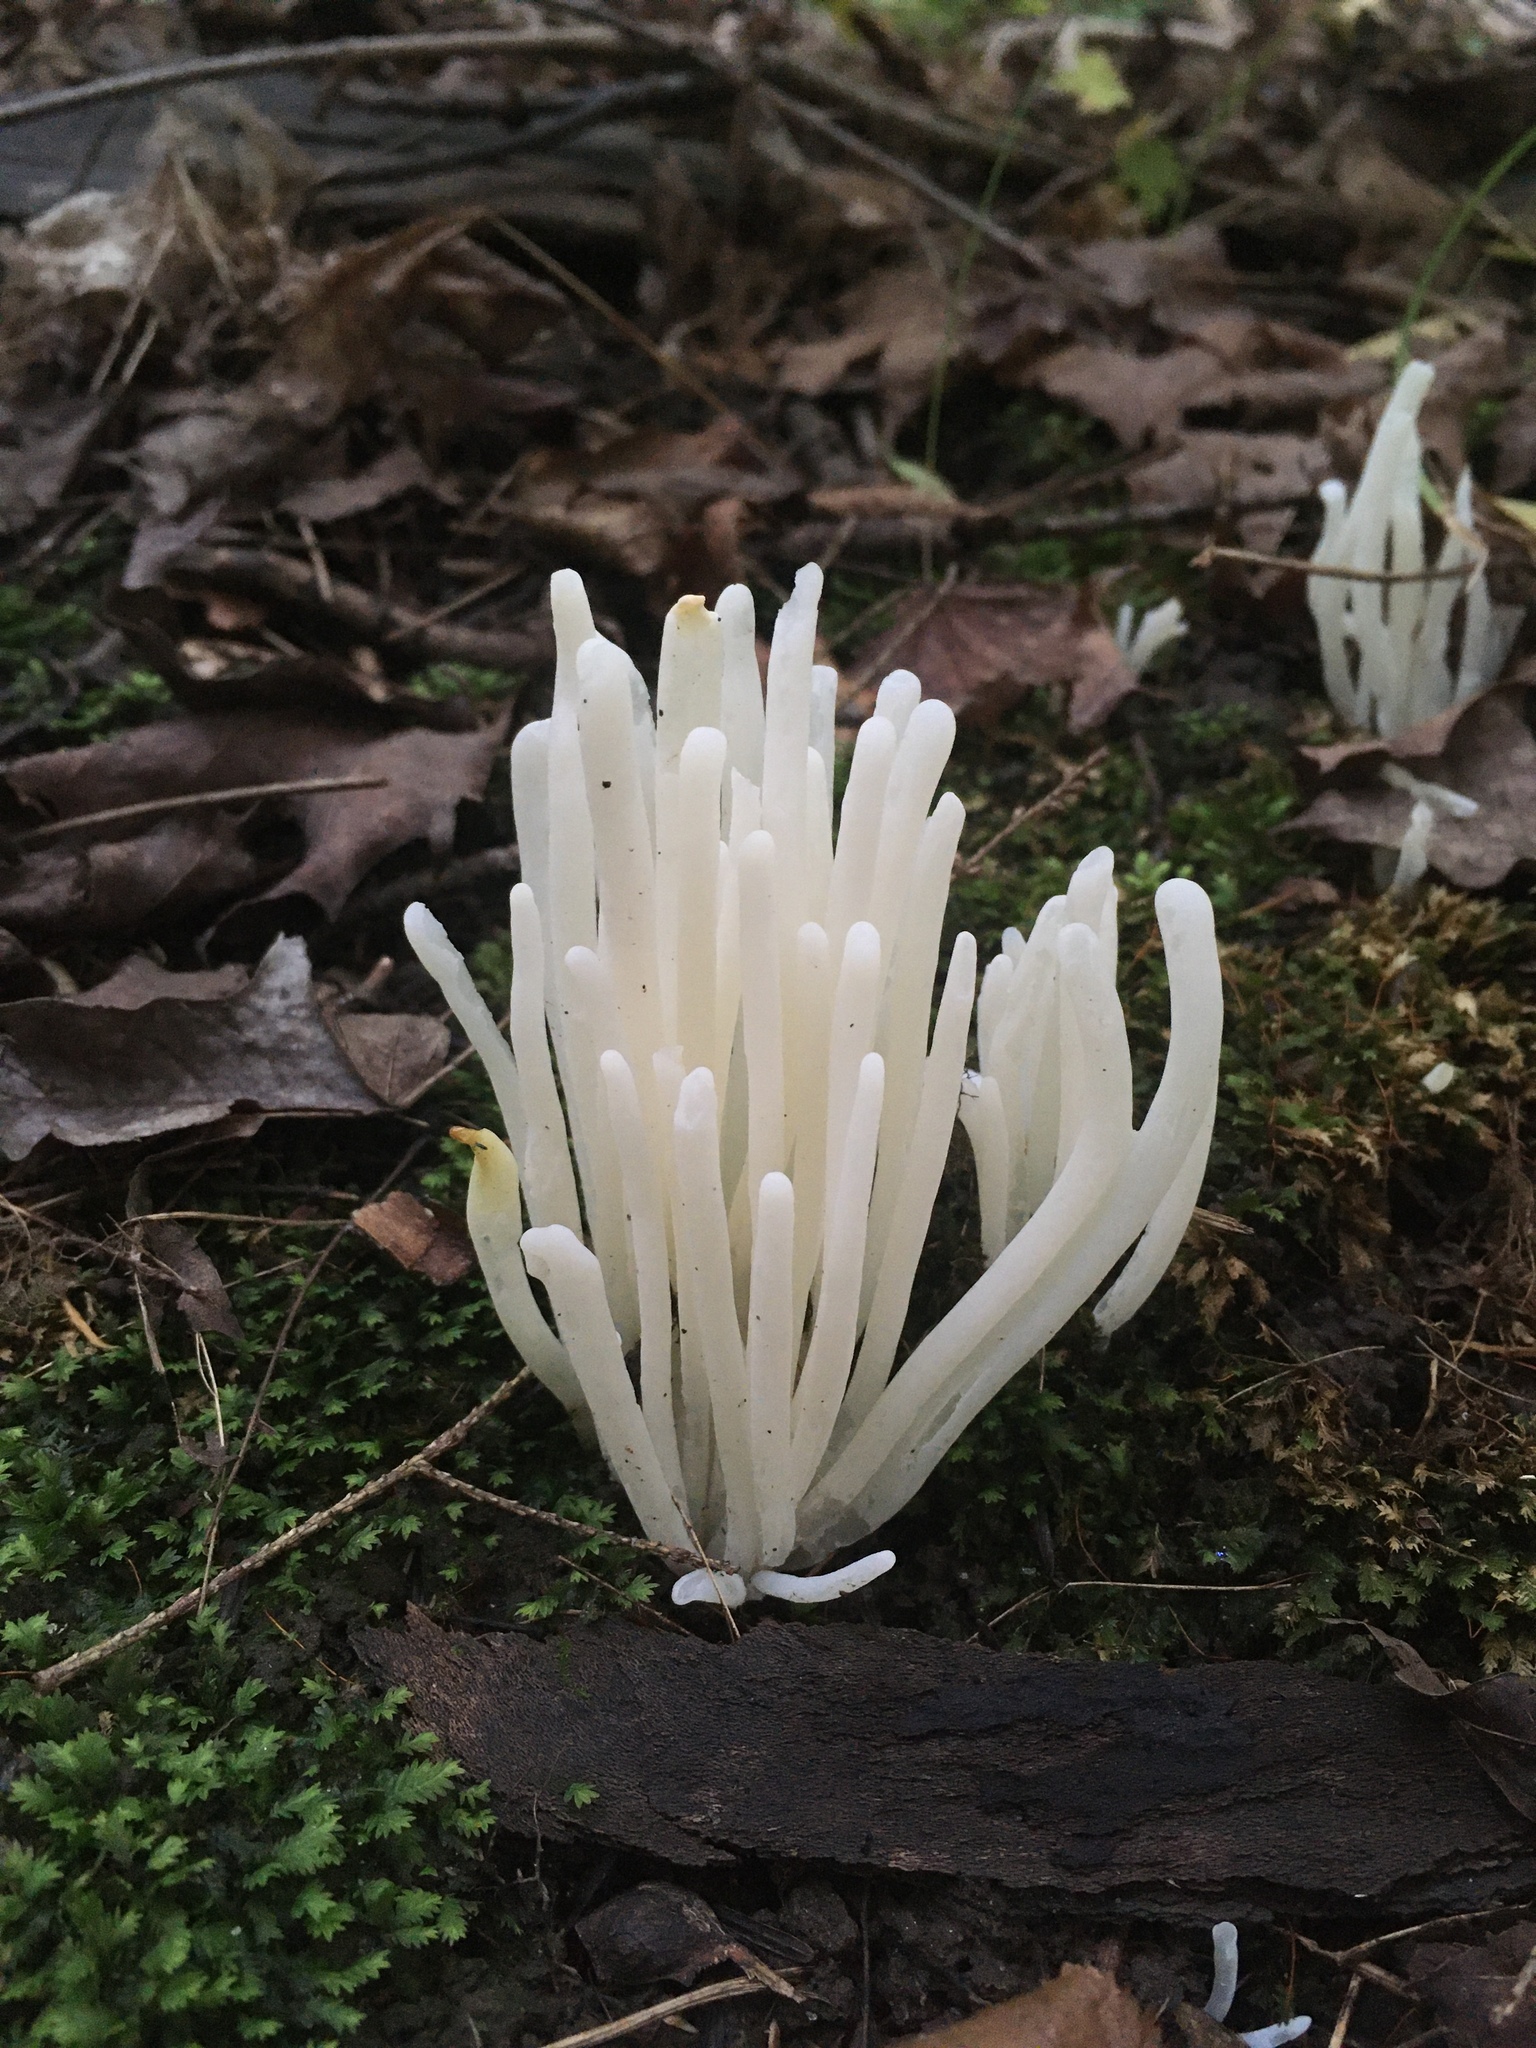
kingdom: Fungi
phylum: Basidiomycota
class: Agaricomycetes
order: Agaricales
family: Clavariaceae
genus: Clavaria
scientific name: Clavaria fragilis
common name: White spindles
